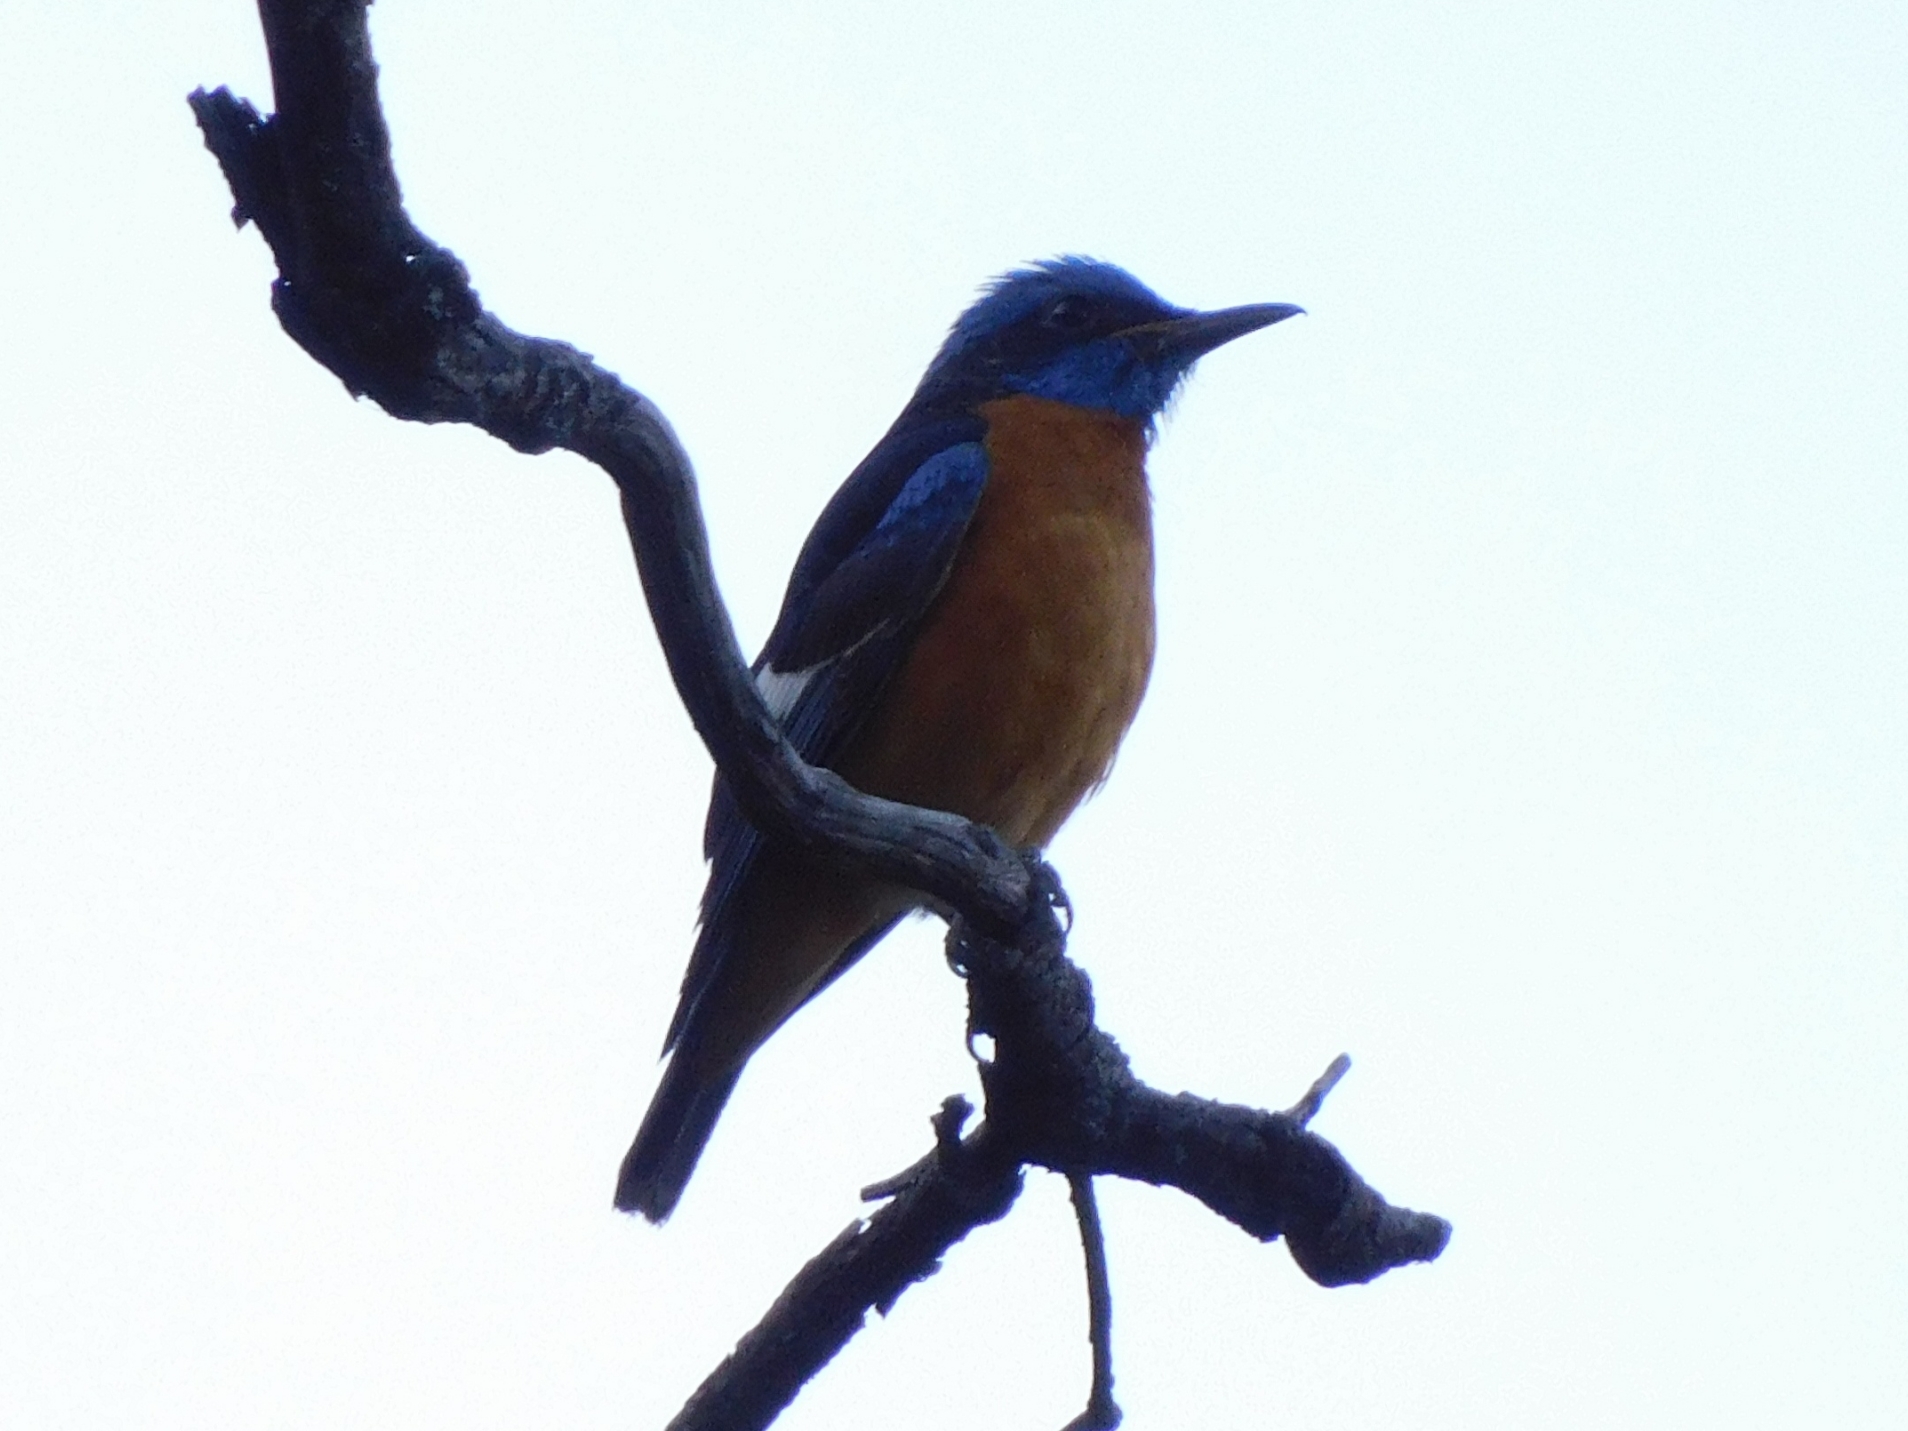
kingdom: Animalia
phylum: Chordata
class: Aves
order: Passeriformes
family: Muscicapidae
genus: Monticola
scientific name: Monticola cinclorhynchus
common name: Blue-capped rock thrush
